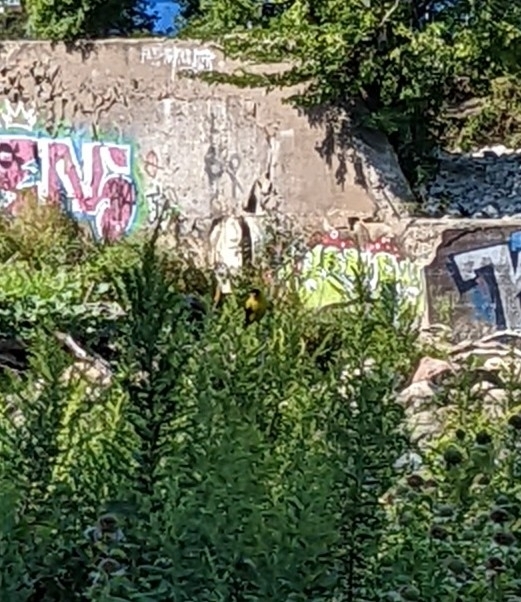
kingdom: Animalia
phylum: Chordata
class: Aves
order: Passeriformes
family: Fringillidae
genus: Spinus
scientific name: Spinus tristis
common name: American goldfinch
